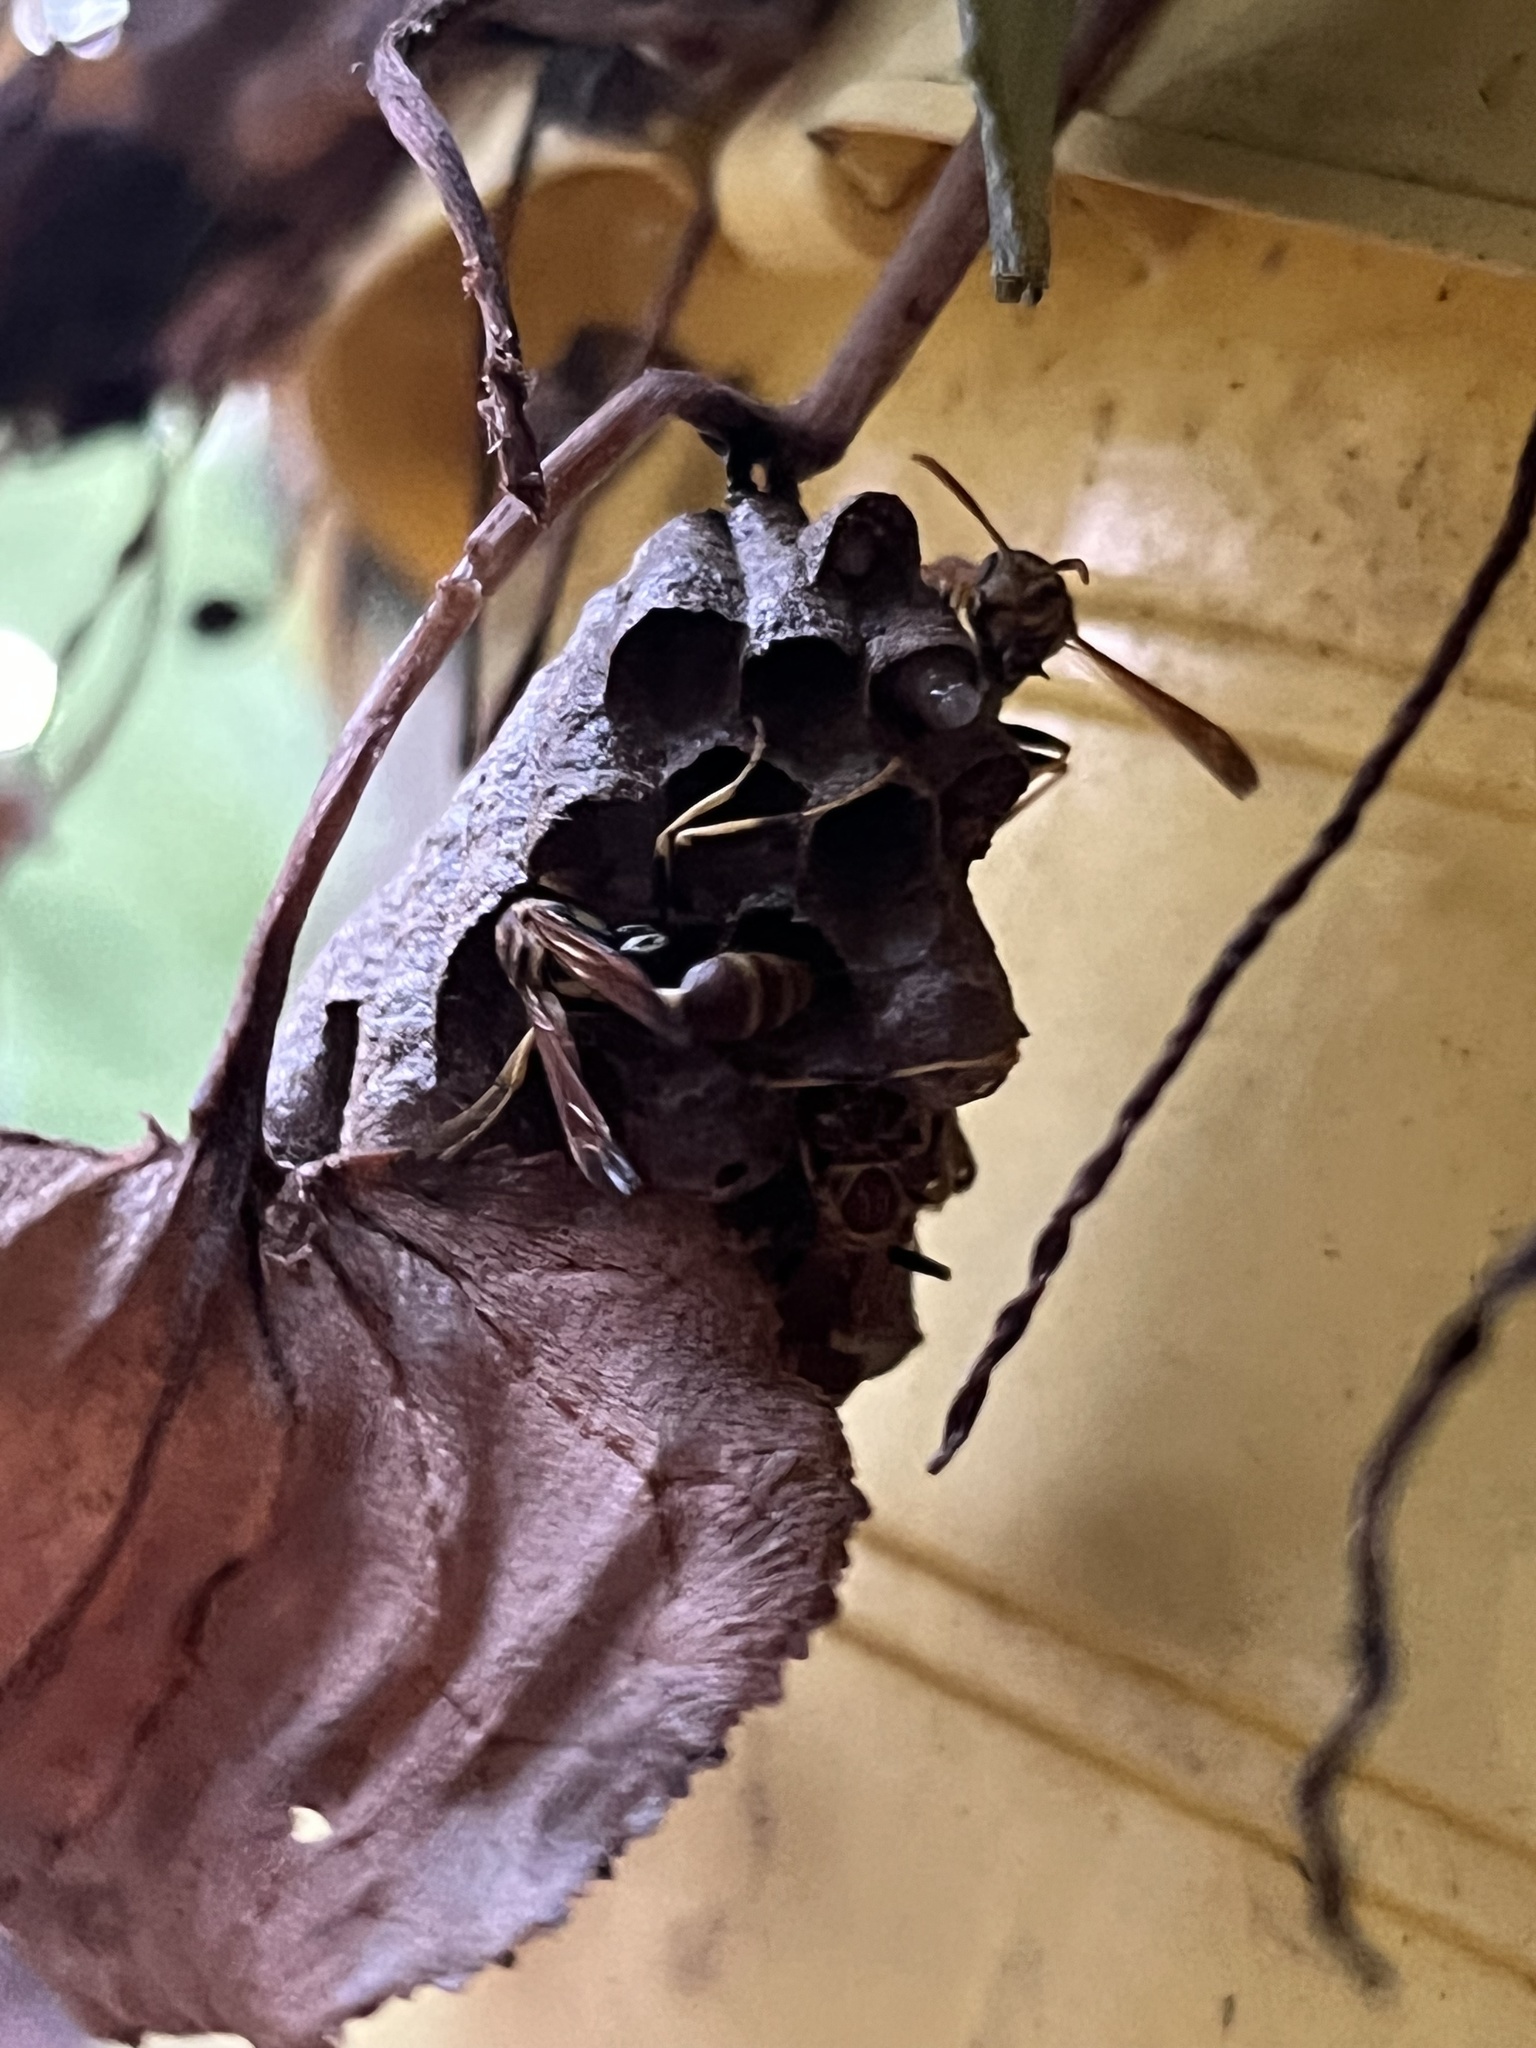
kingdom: Animalia
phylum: Arthropoda
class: Insecta
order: Hymenoptera
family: Vespidae
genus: Mischocyttarus
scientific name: Mischocyttarus mexicanus
